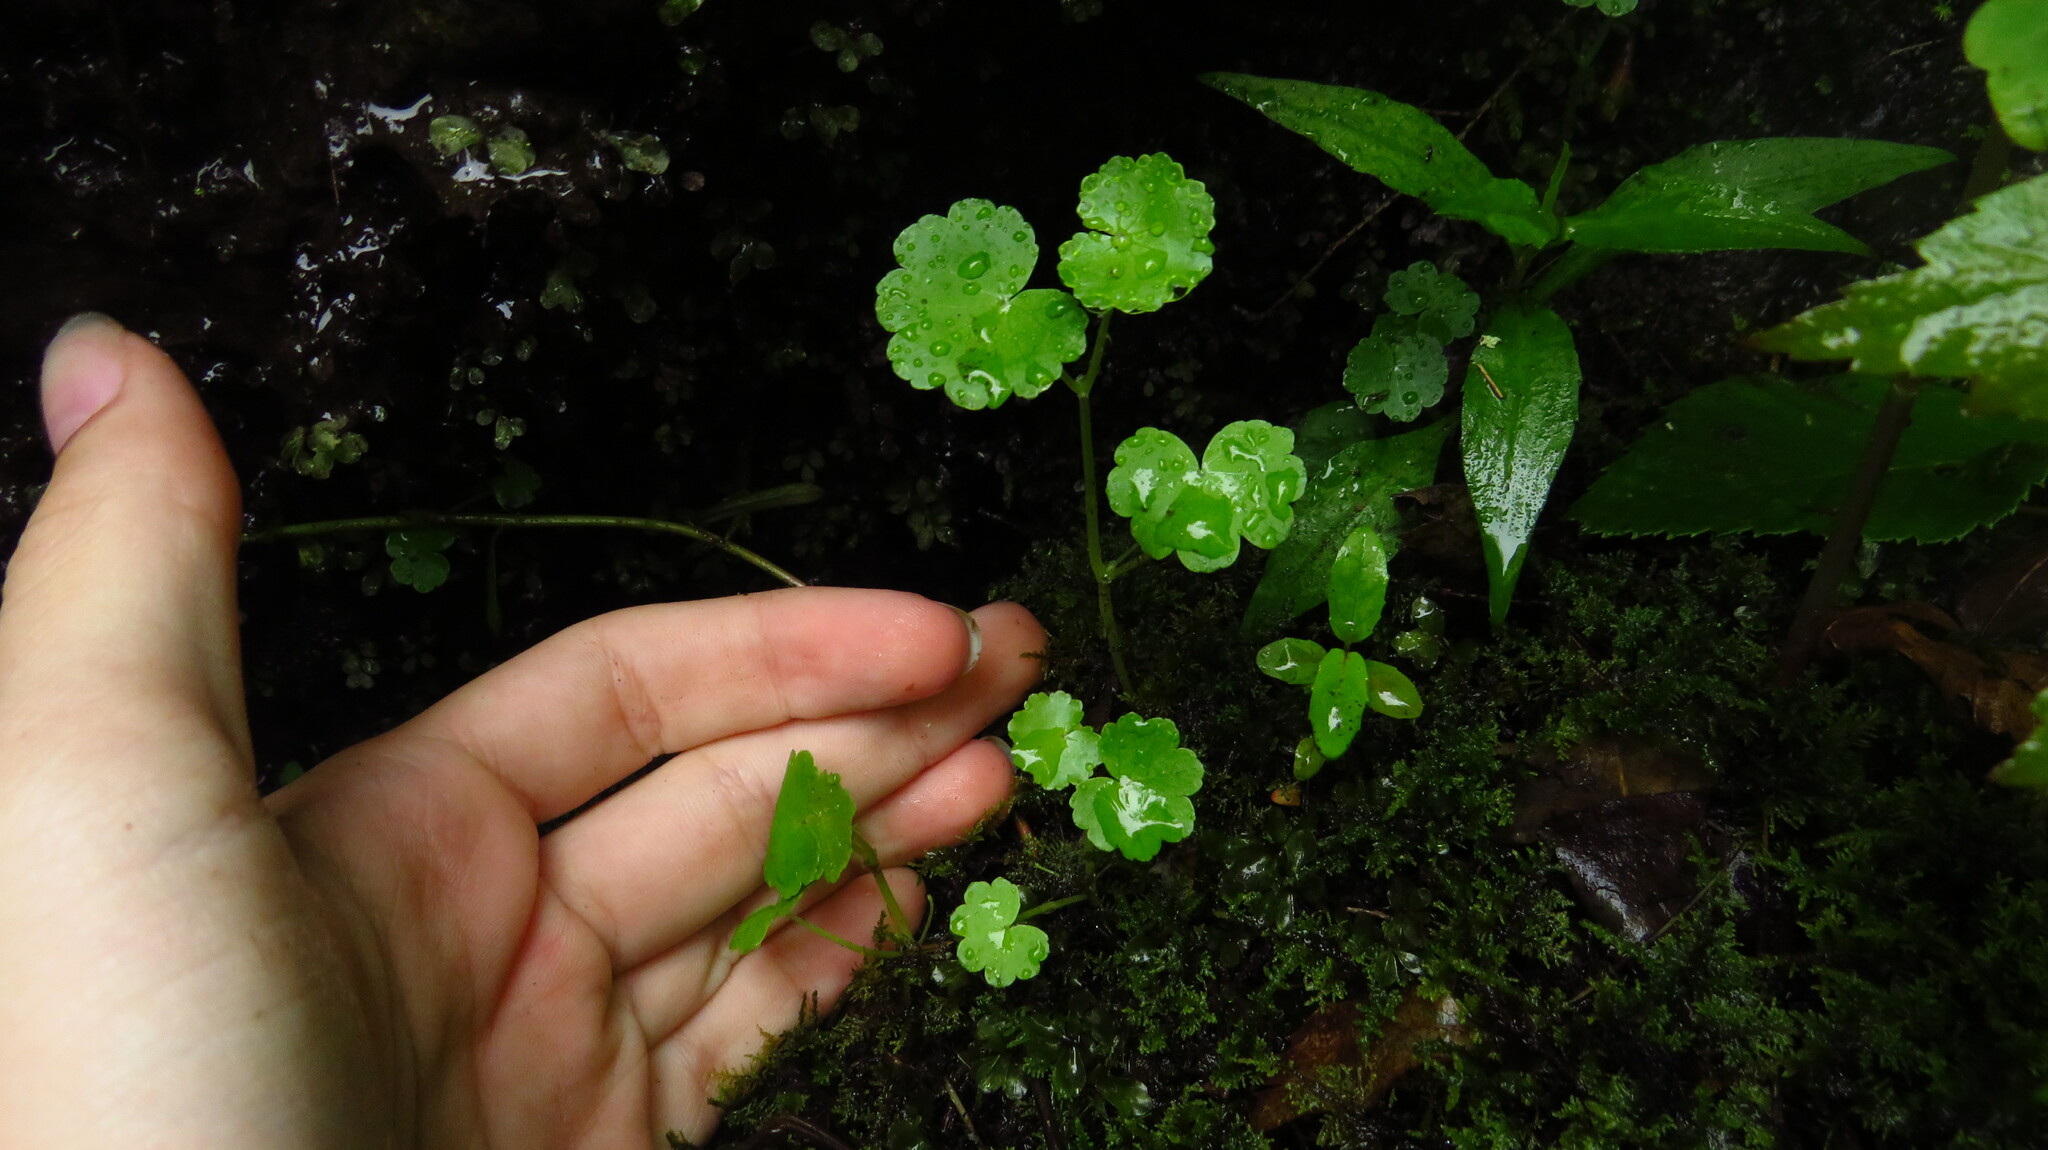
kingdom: Plantae
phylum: Tracheophyta
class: Magnoliopsida
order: Apiales
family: Araliaceae
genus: Hydrocotyle
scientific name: Hydrocotyle americana
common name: American water-pennywort
